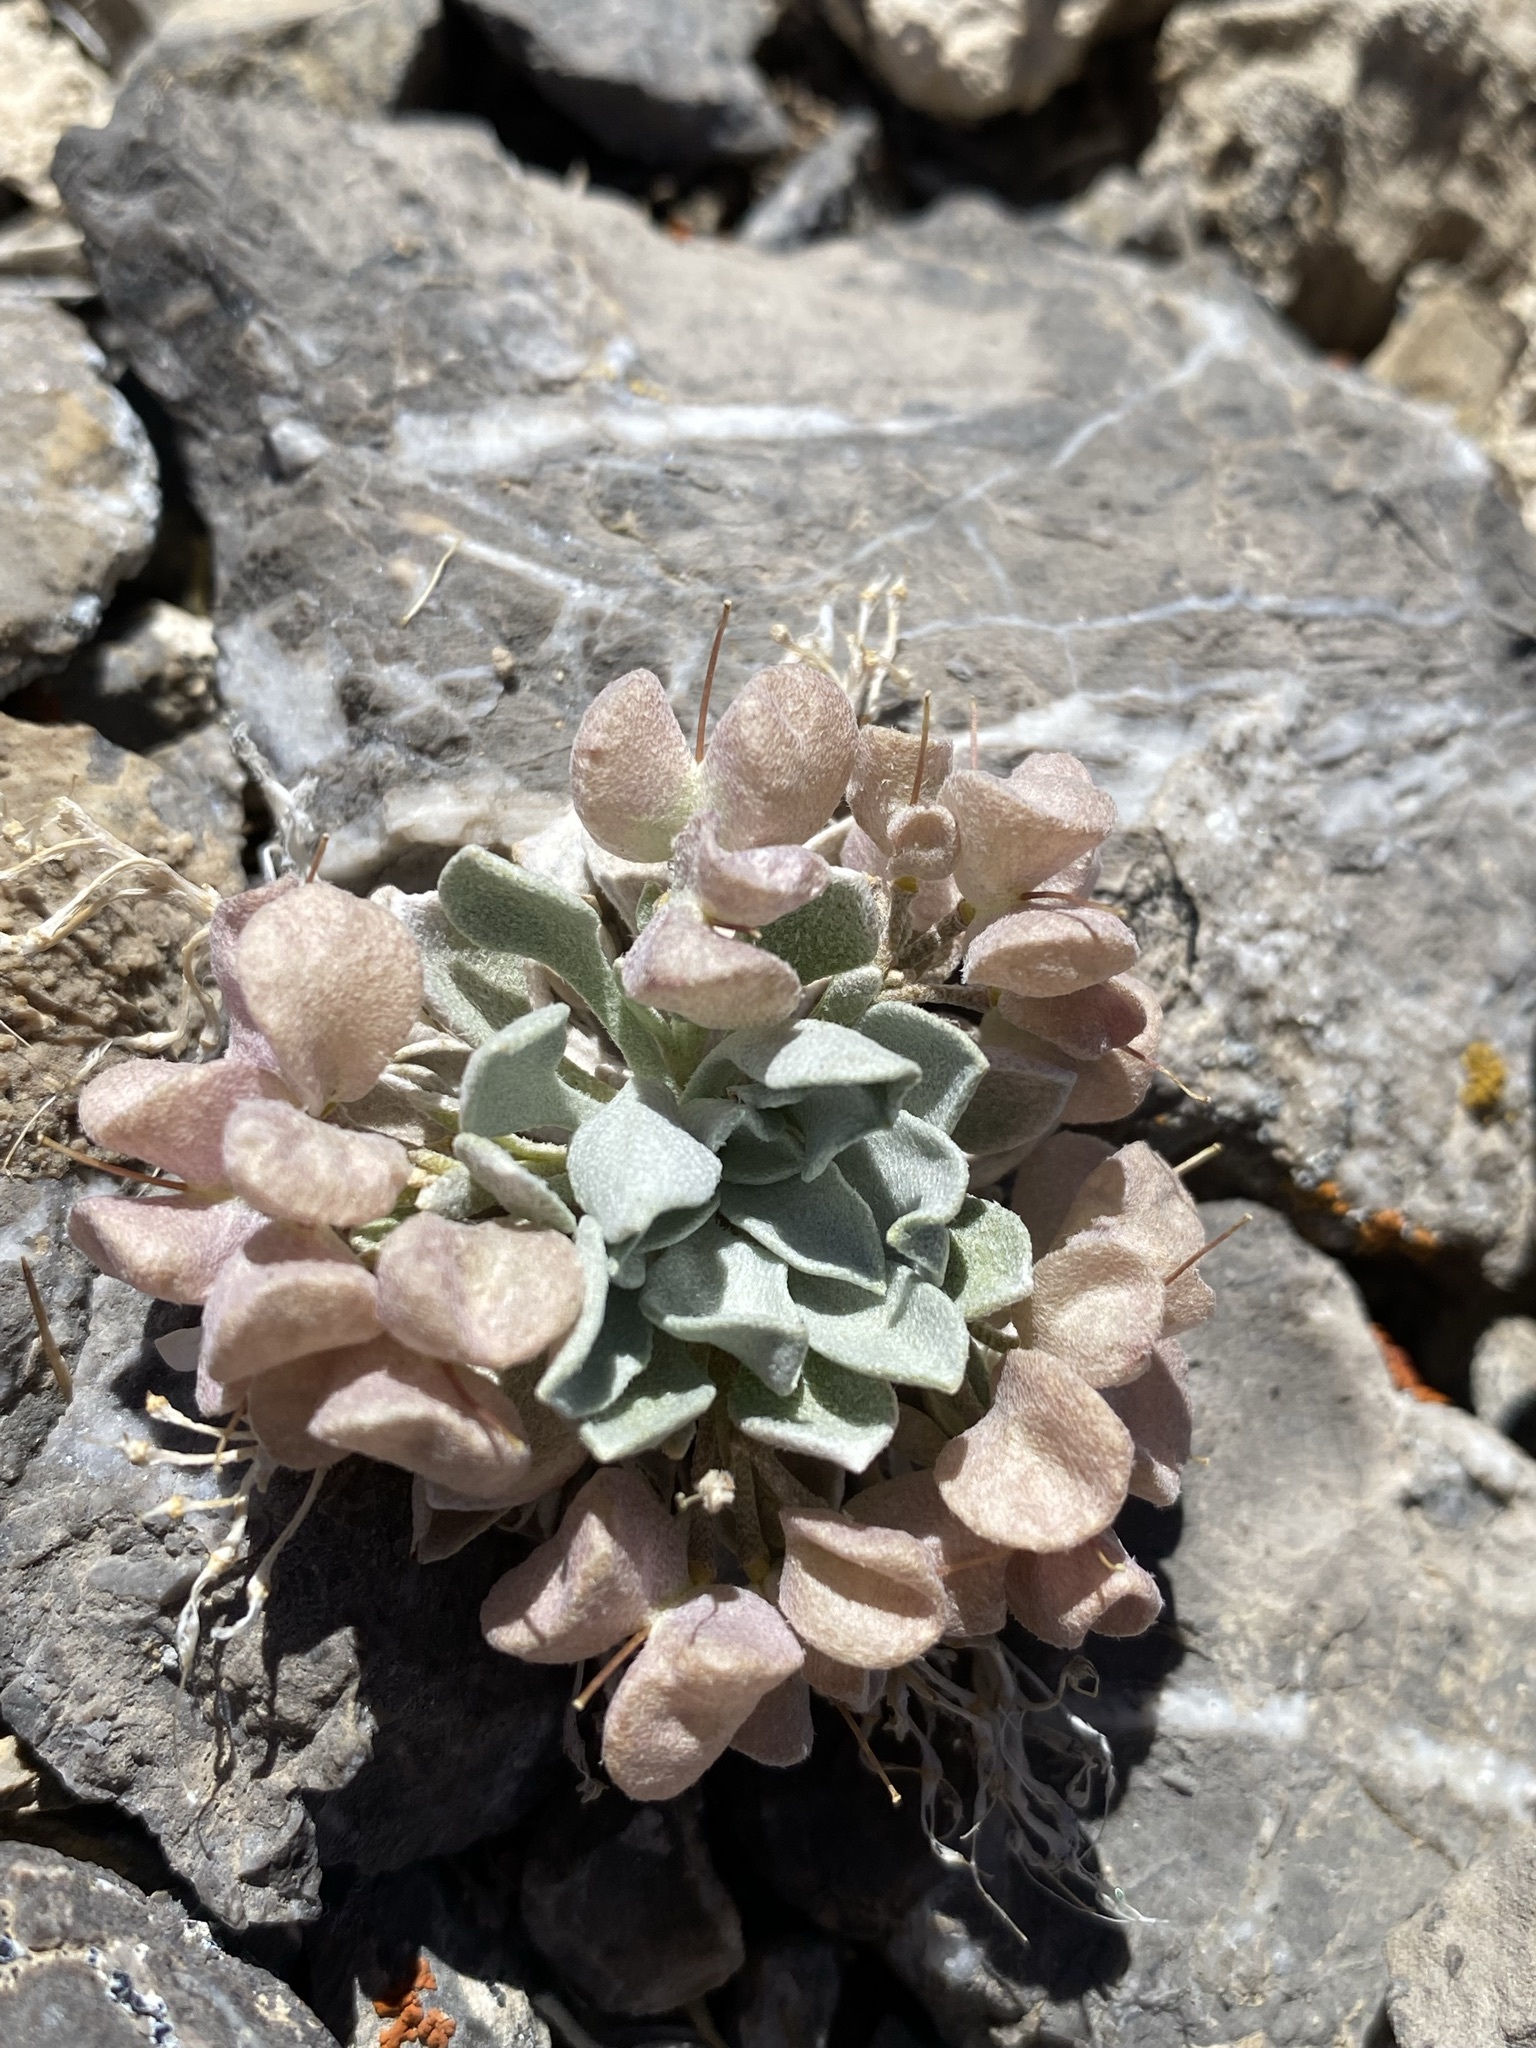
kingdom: Plantae
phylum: Tracheophyta
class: Magnoliopsida
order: Brassicales
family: Brassicaceae
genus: Physaria
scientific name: Physaria chambersii
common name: Chamber's twinpod
